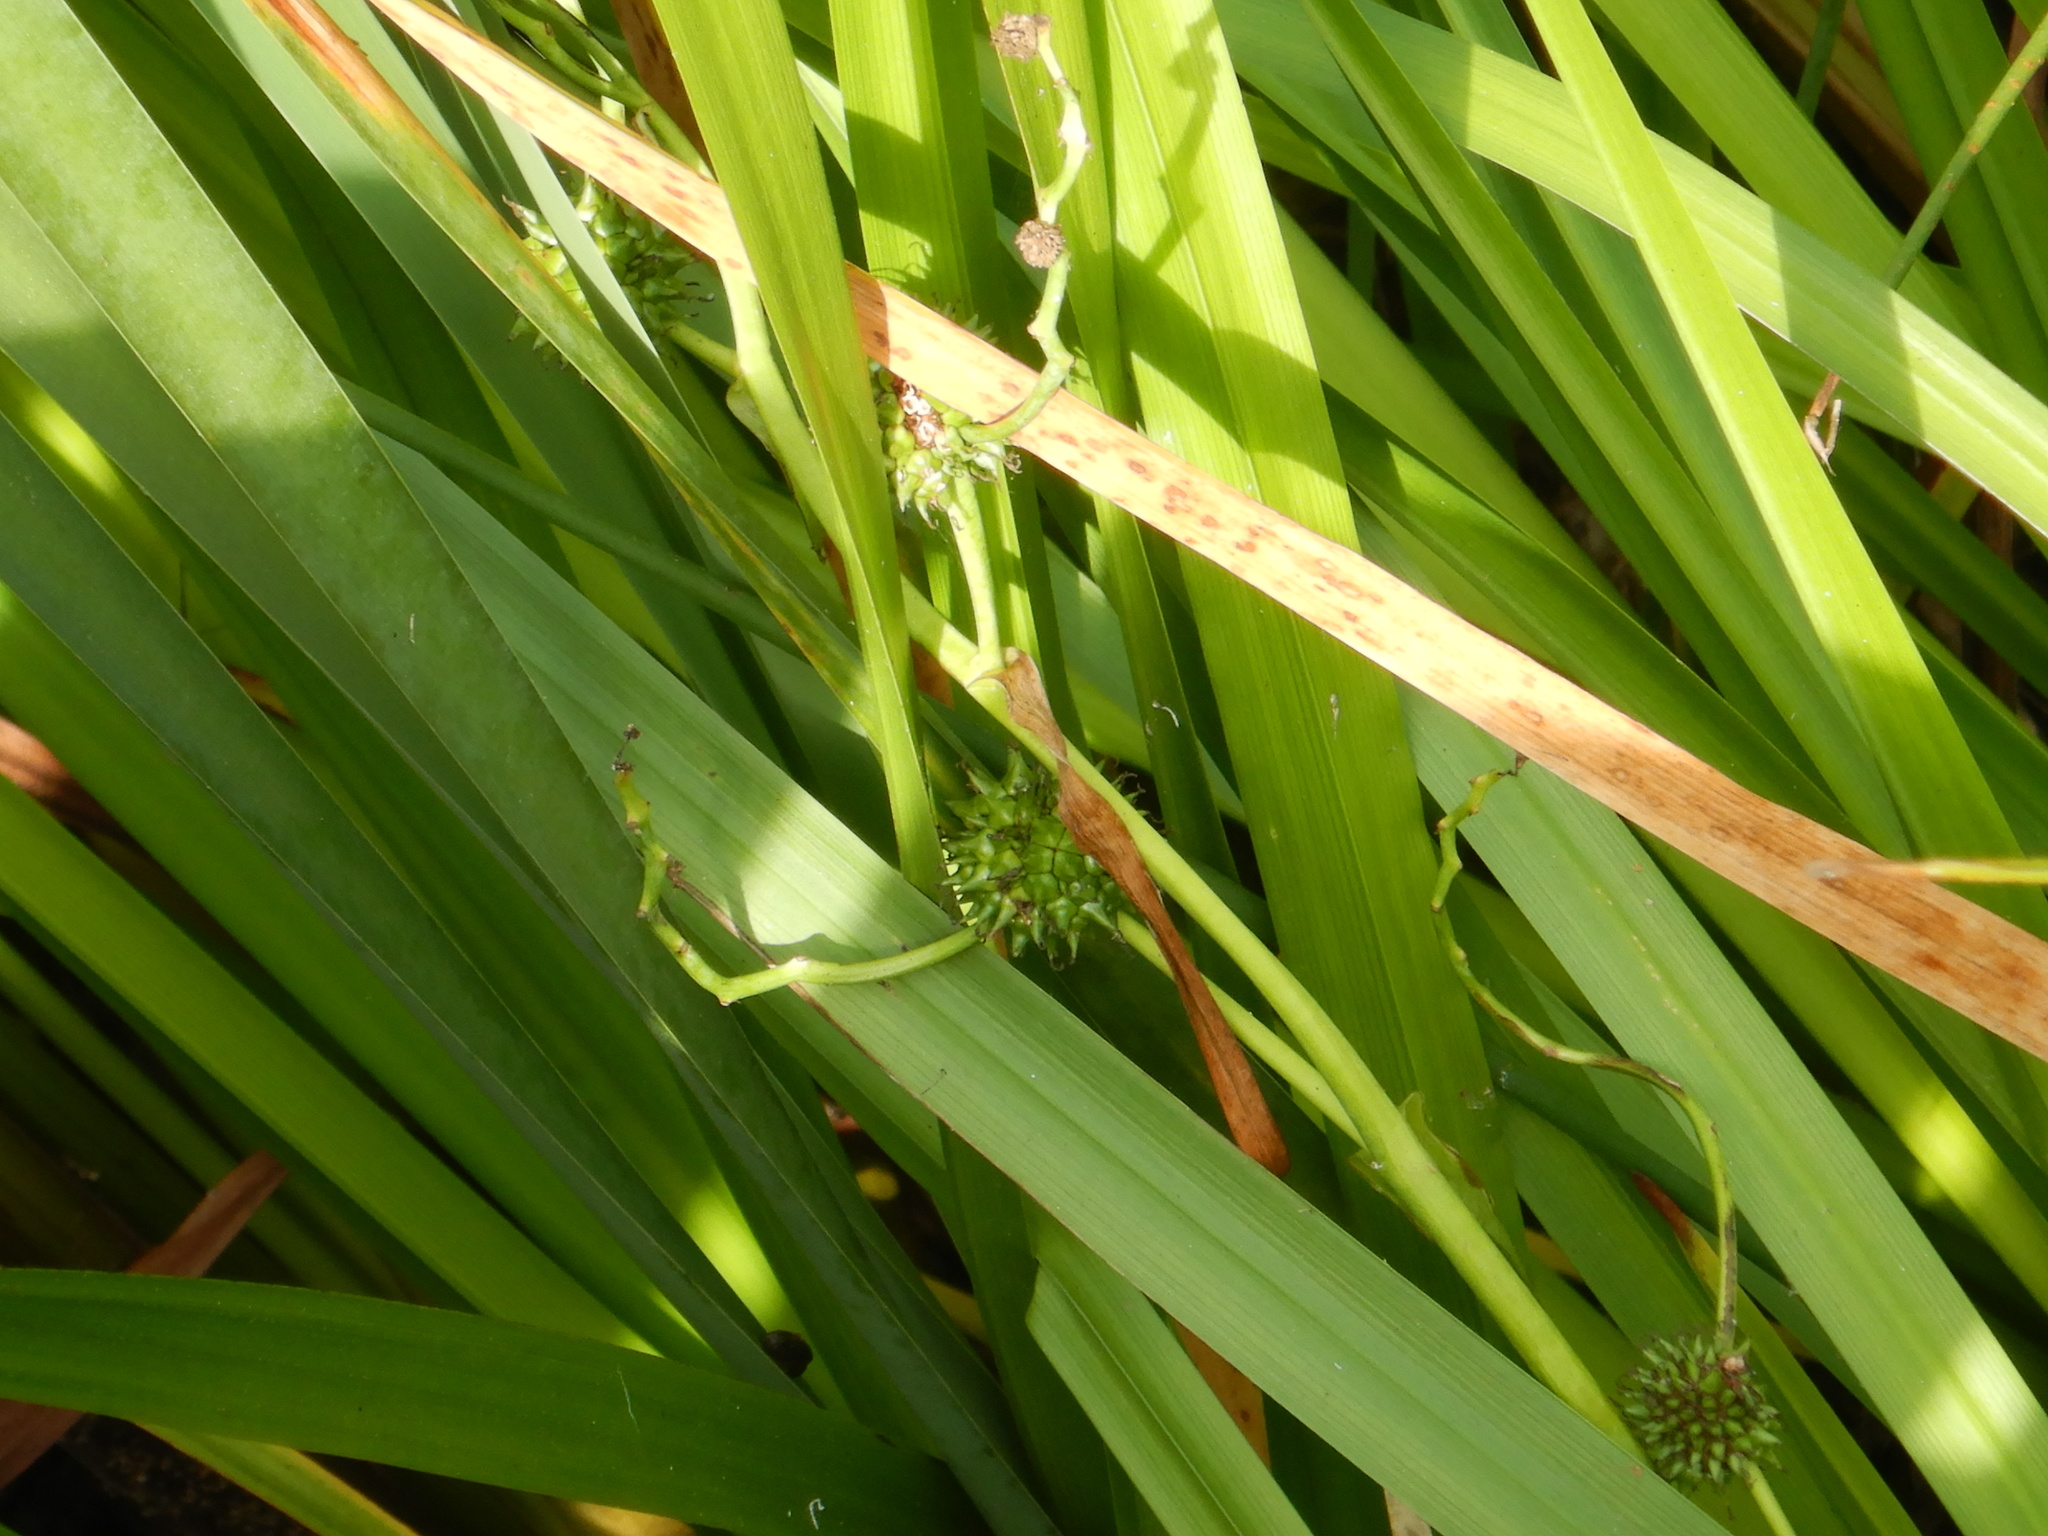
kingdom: Plantae
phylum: Tracheophyta
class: Liliopsida
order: Poales
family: Typhaceae
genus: Sparganium
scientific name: Sparganium erectum
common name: Branched bur-reed
